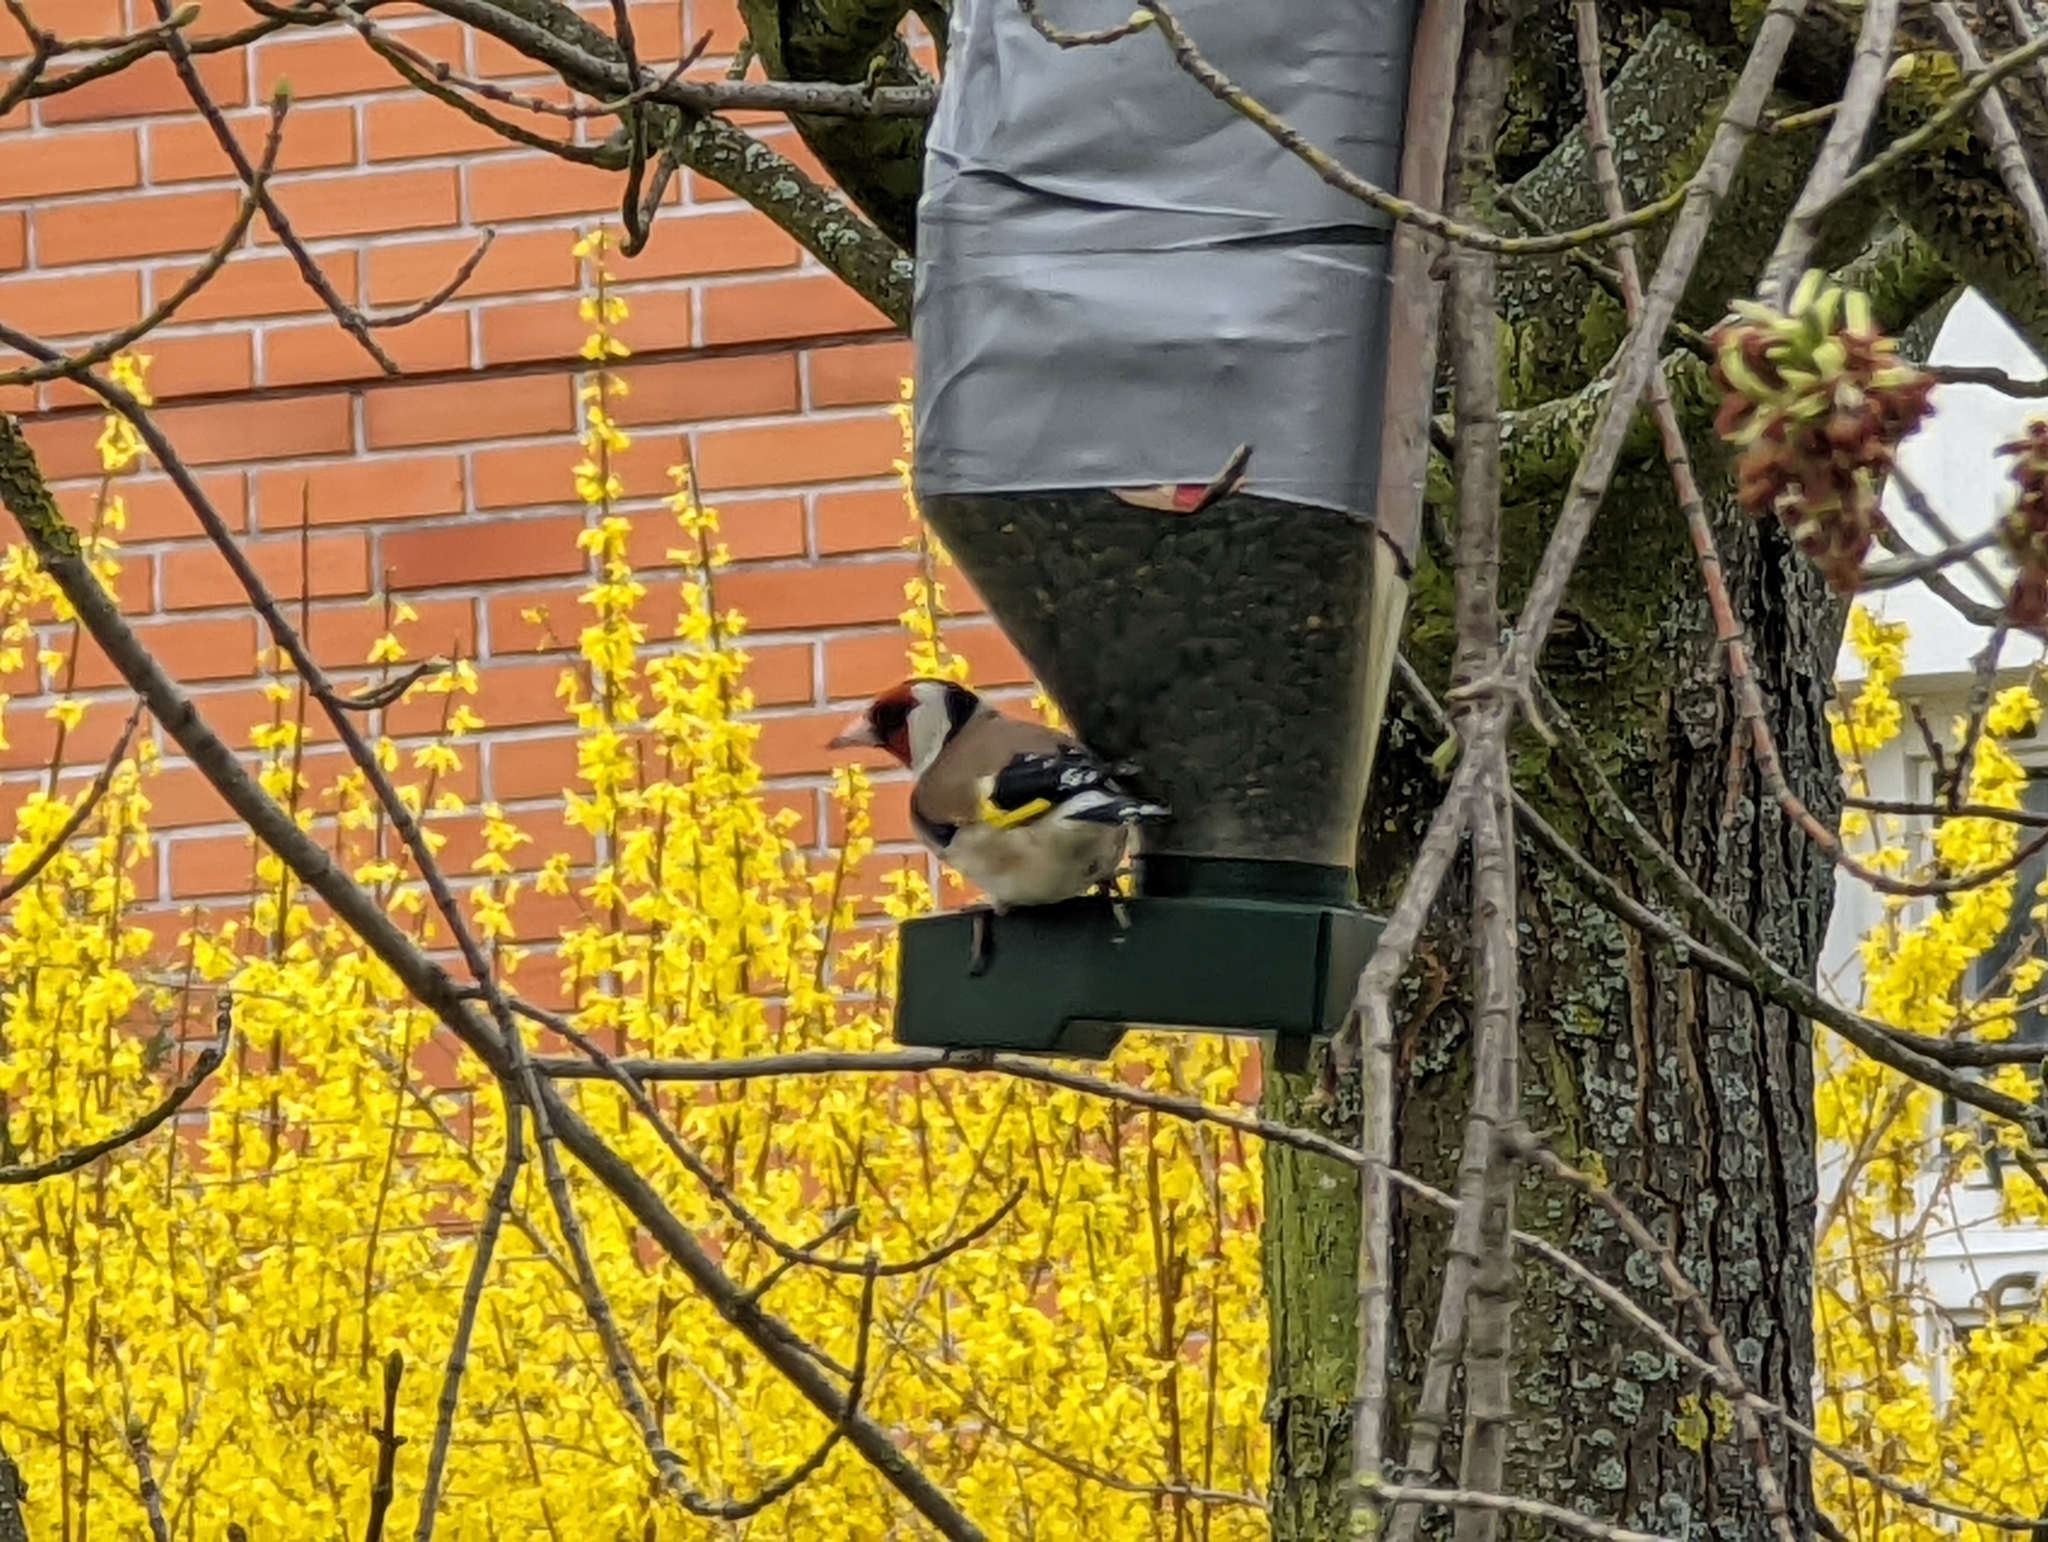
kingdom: Animalia
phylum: Chordata
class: Aves
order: Passeriformes
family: Fringillidae
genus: Carduelis
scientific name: Carduelis carduelis
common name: European goldfinch
